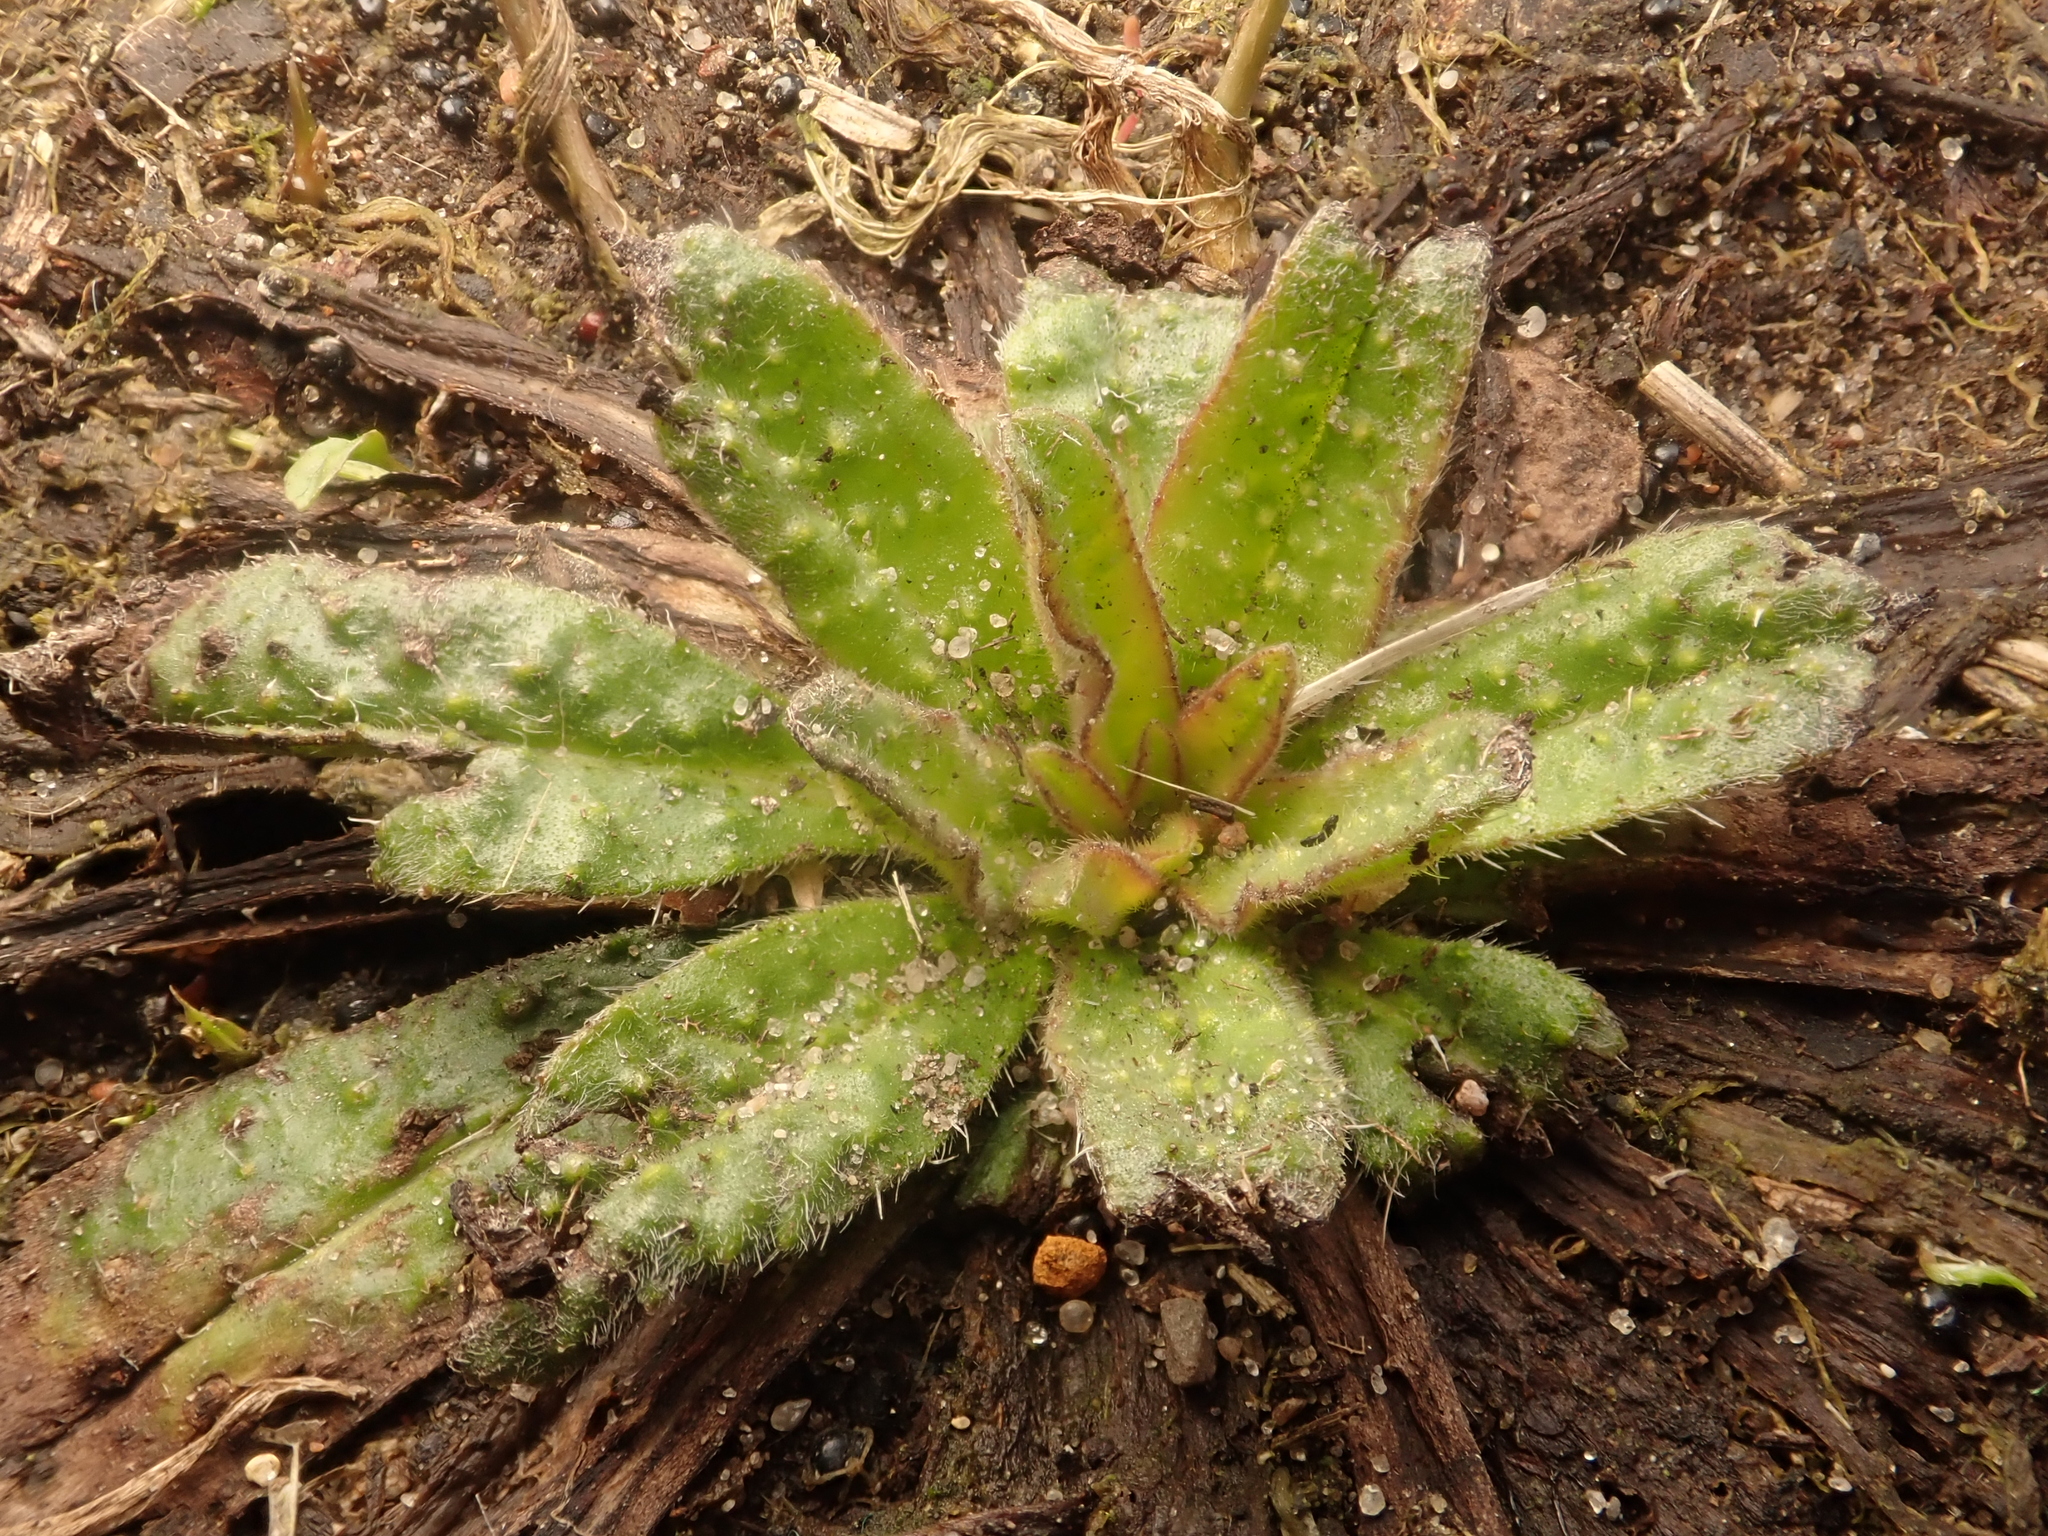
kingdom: Plantae
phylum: Tracheophyta
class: Magnoliopsida
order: Boraginales
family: Boraginaceae
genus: Echium
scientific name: Echium vulgare
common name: Common viper's bugloss
